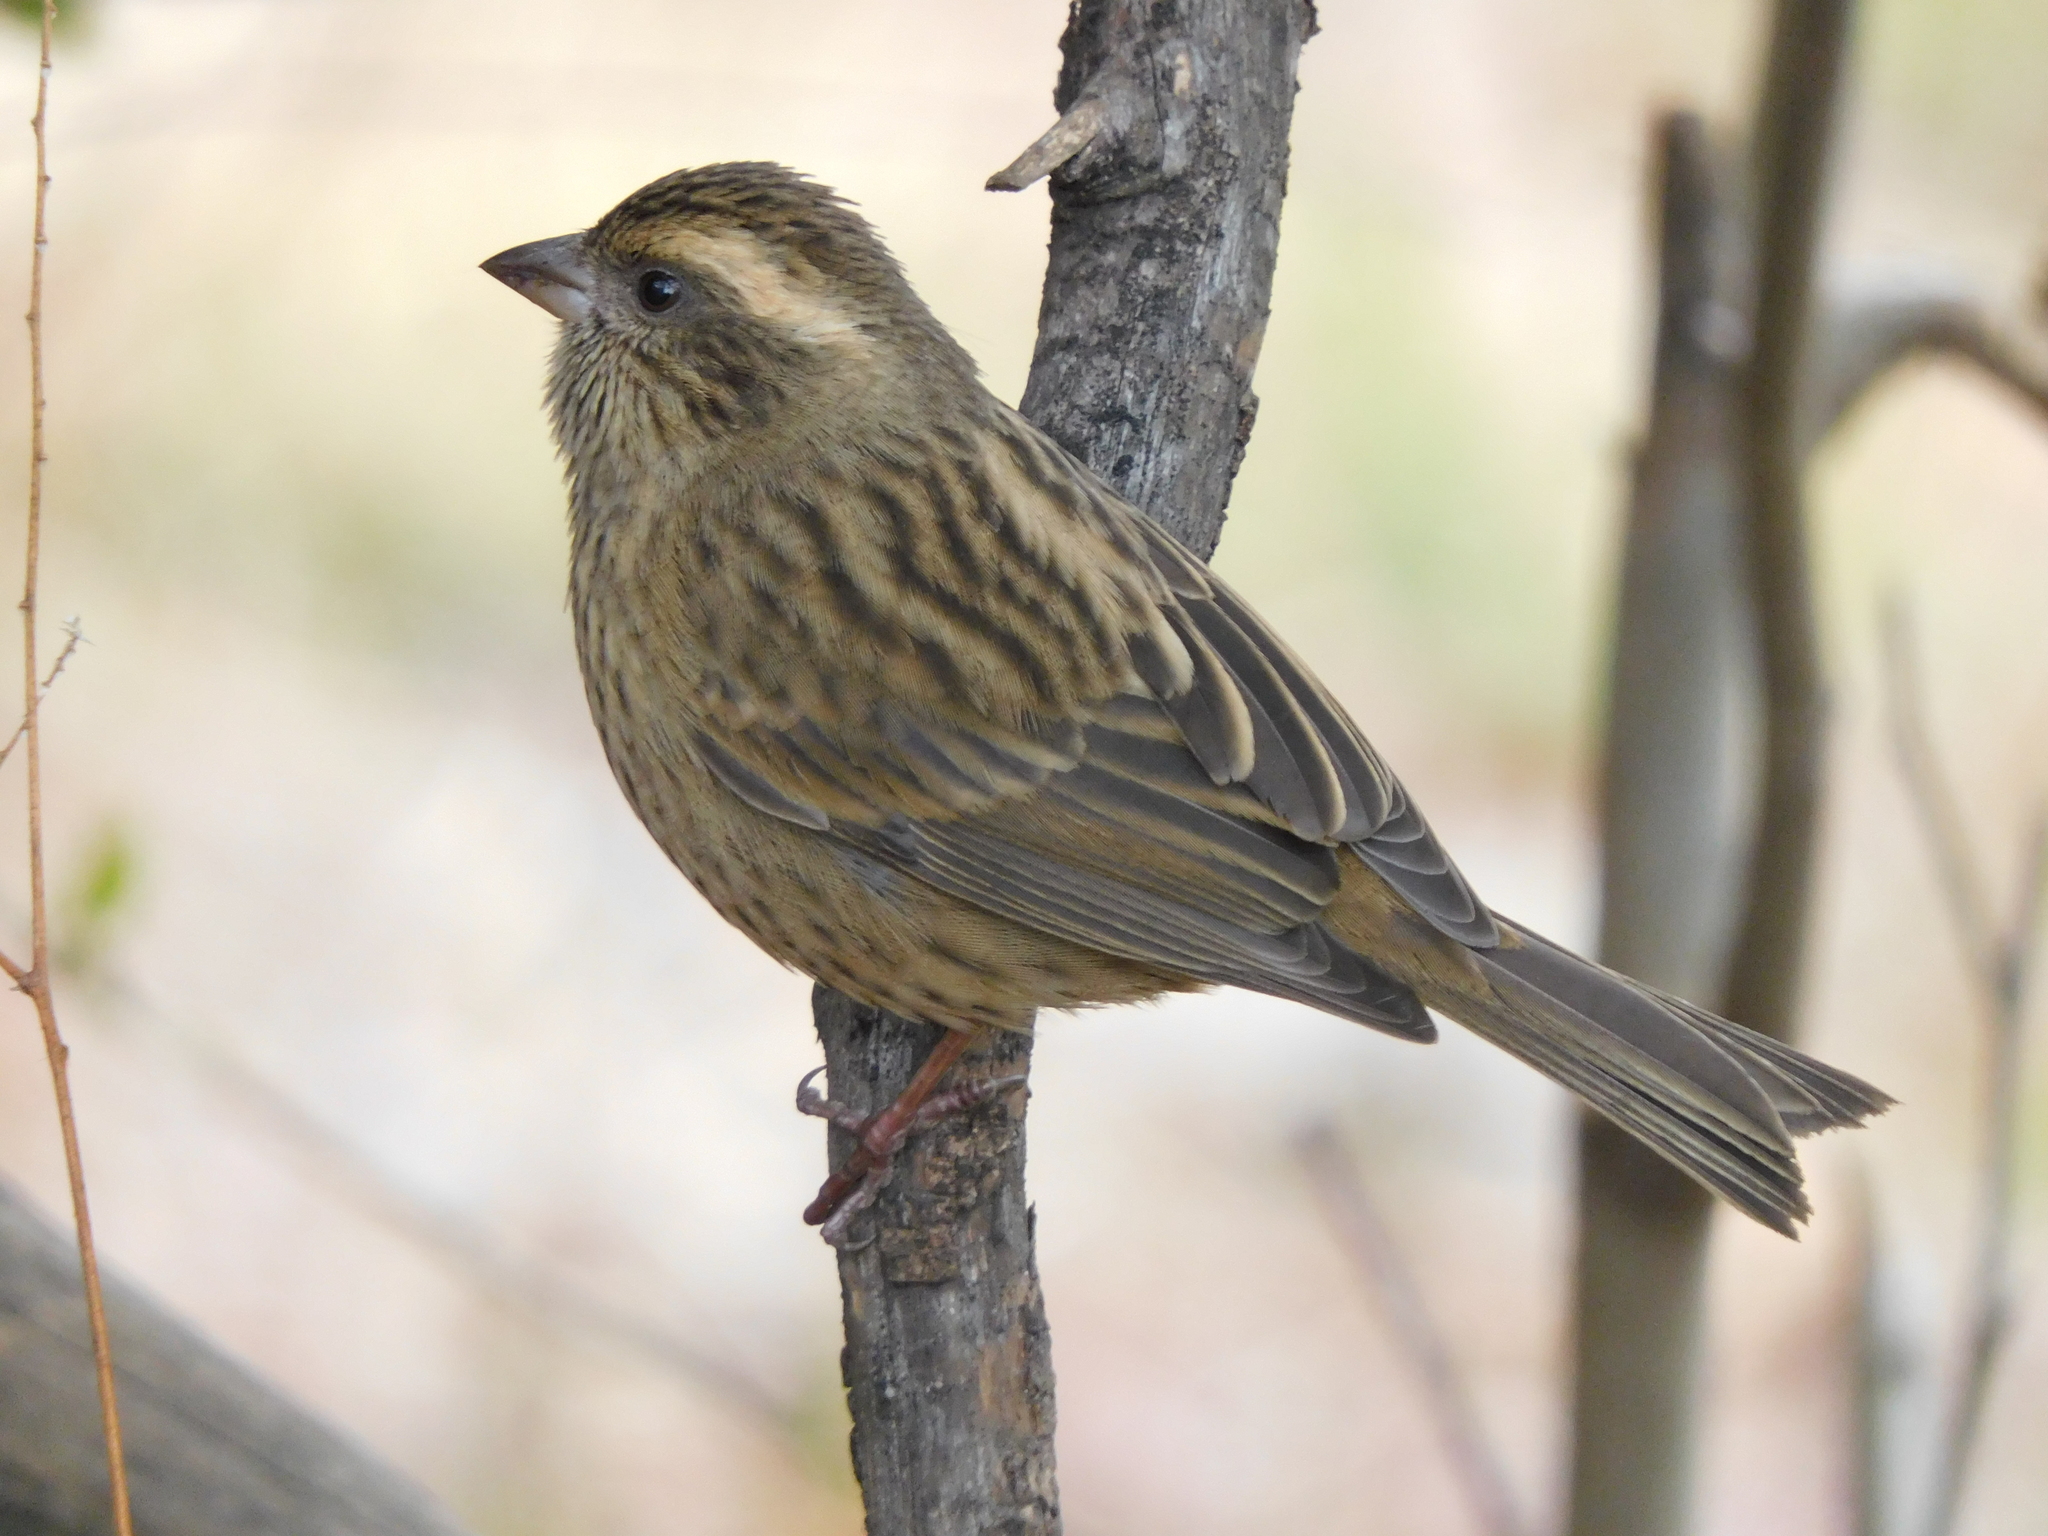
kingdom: Animalia
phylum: Chordata
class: Aves
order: Passeriformes
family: Fringillidae
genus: Carpodacus
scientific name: Carpodacus rodochroa
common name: Pink-browed rosefinch
